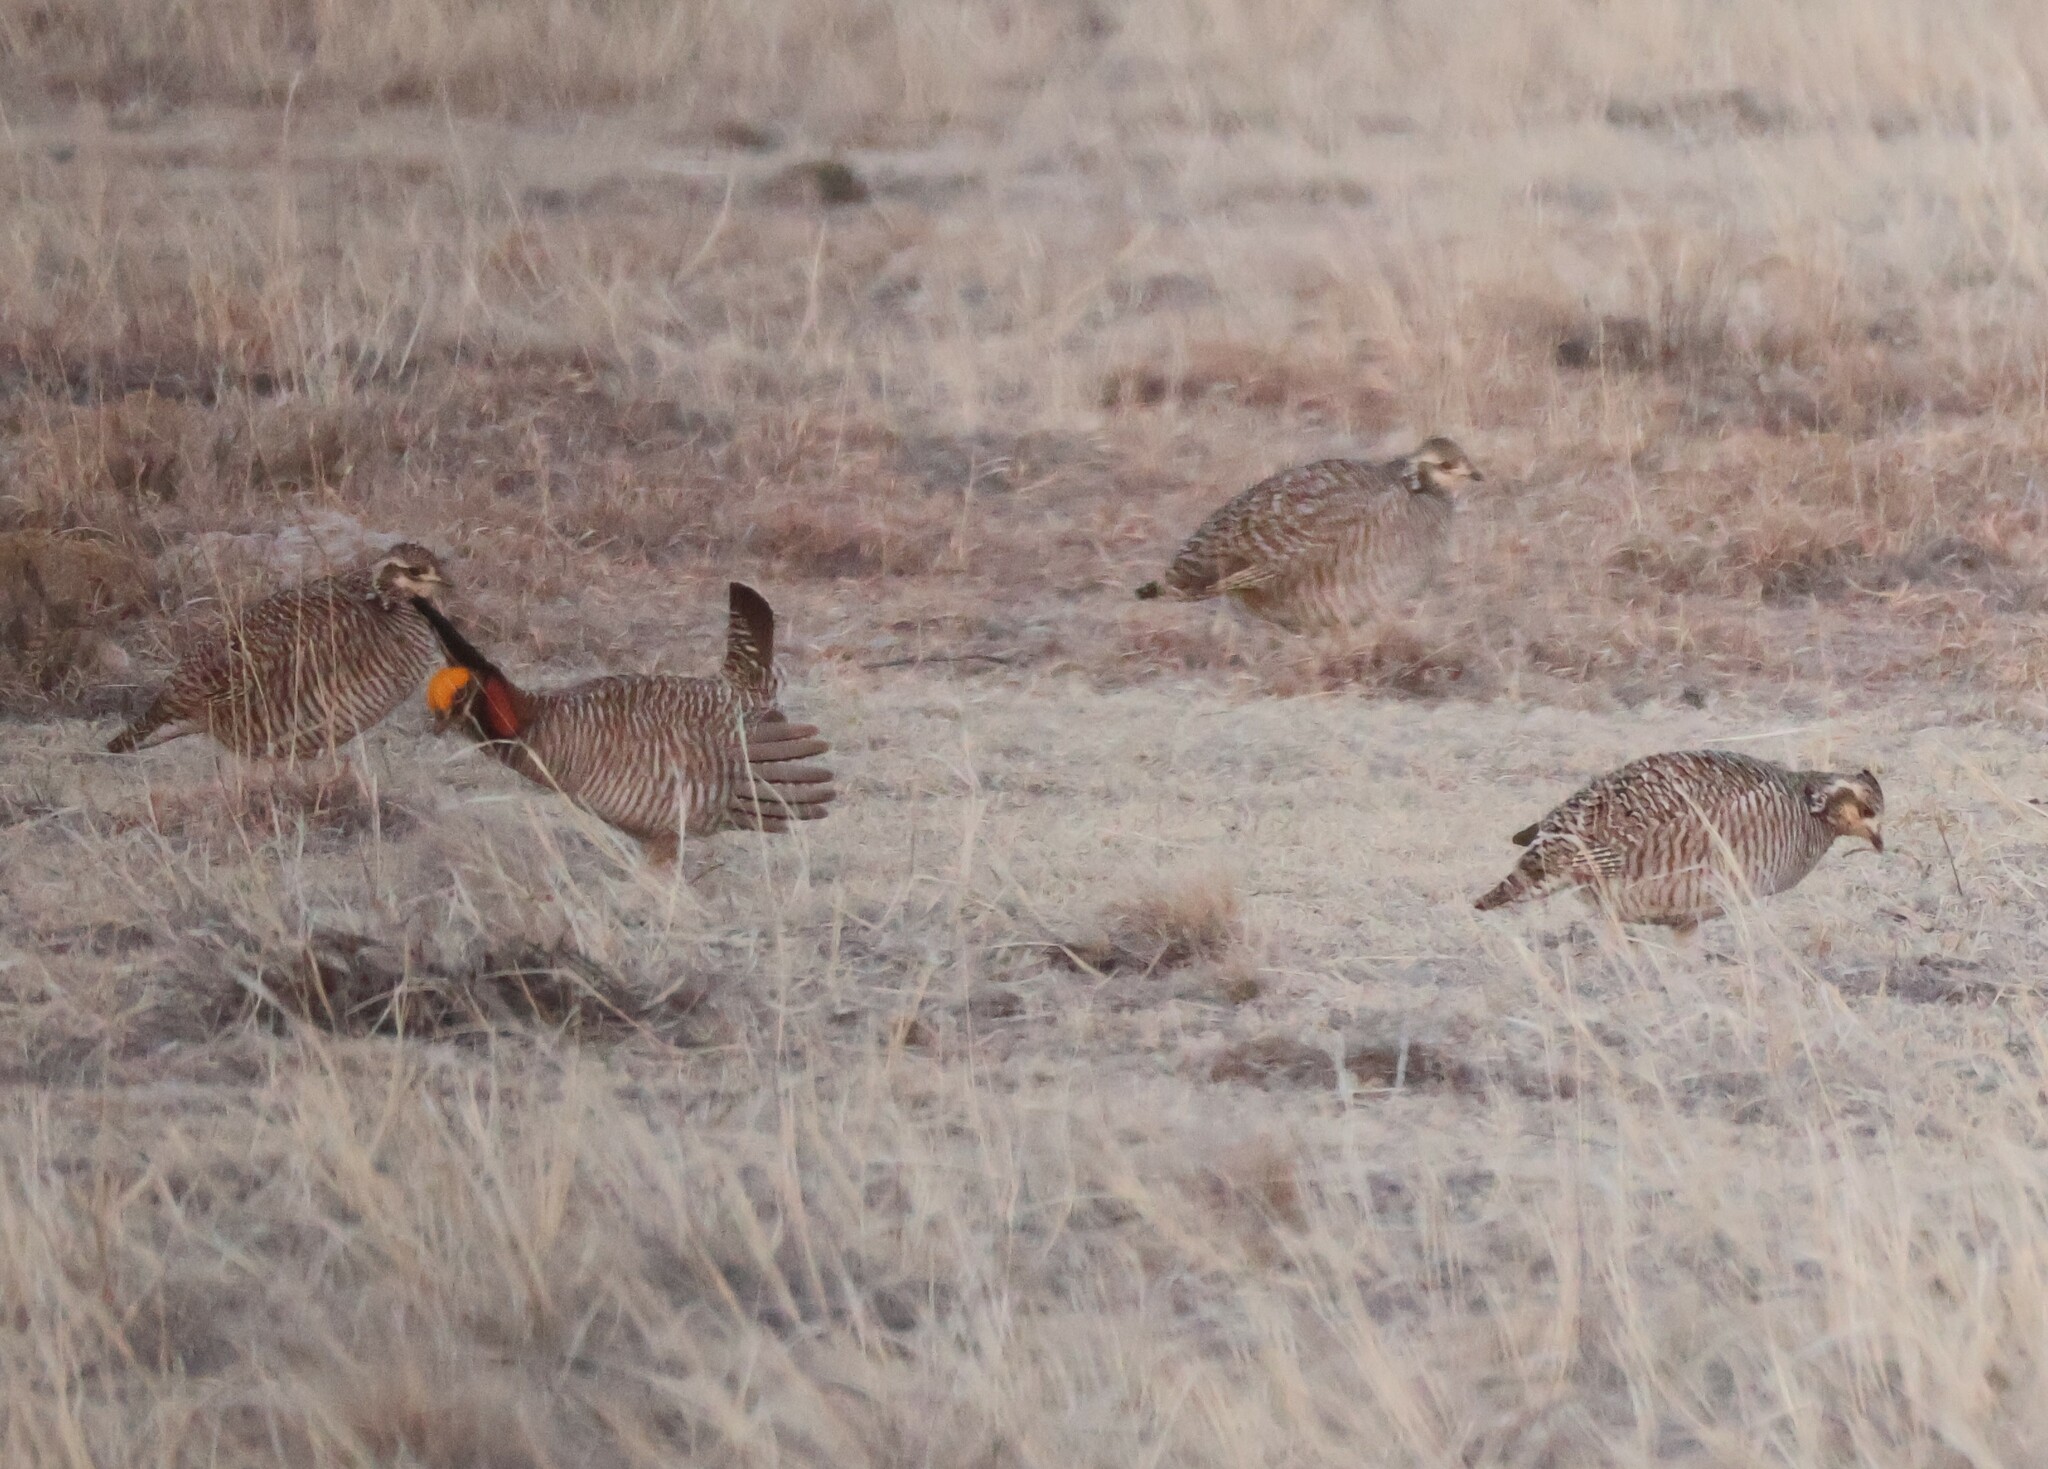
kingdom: Animalia
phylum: Chordata
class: Aves
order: Galliformes
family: Phasianidae
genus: Tympanuchus
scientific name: Tympanuchus pallidicinctus
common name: Lesser prairie chicken
